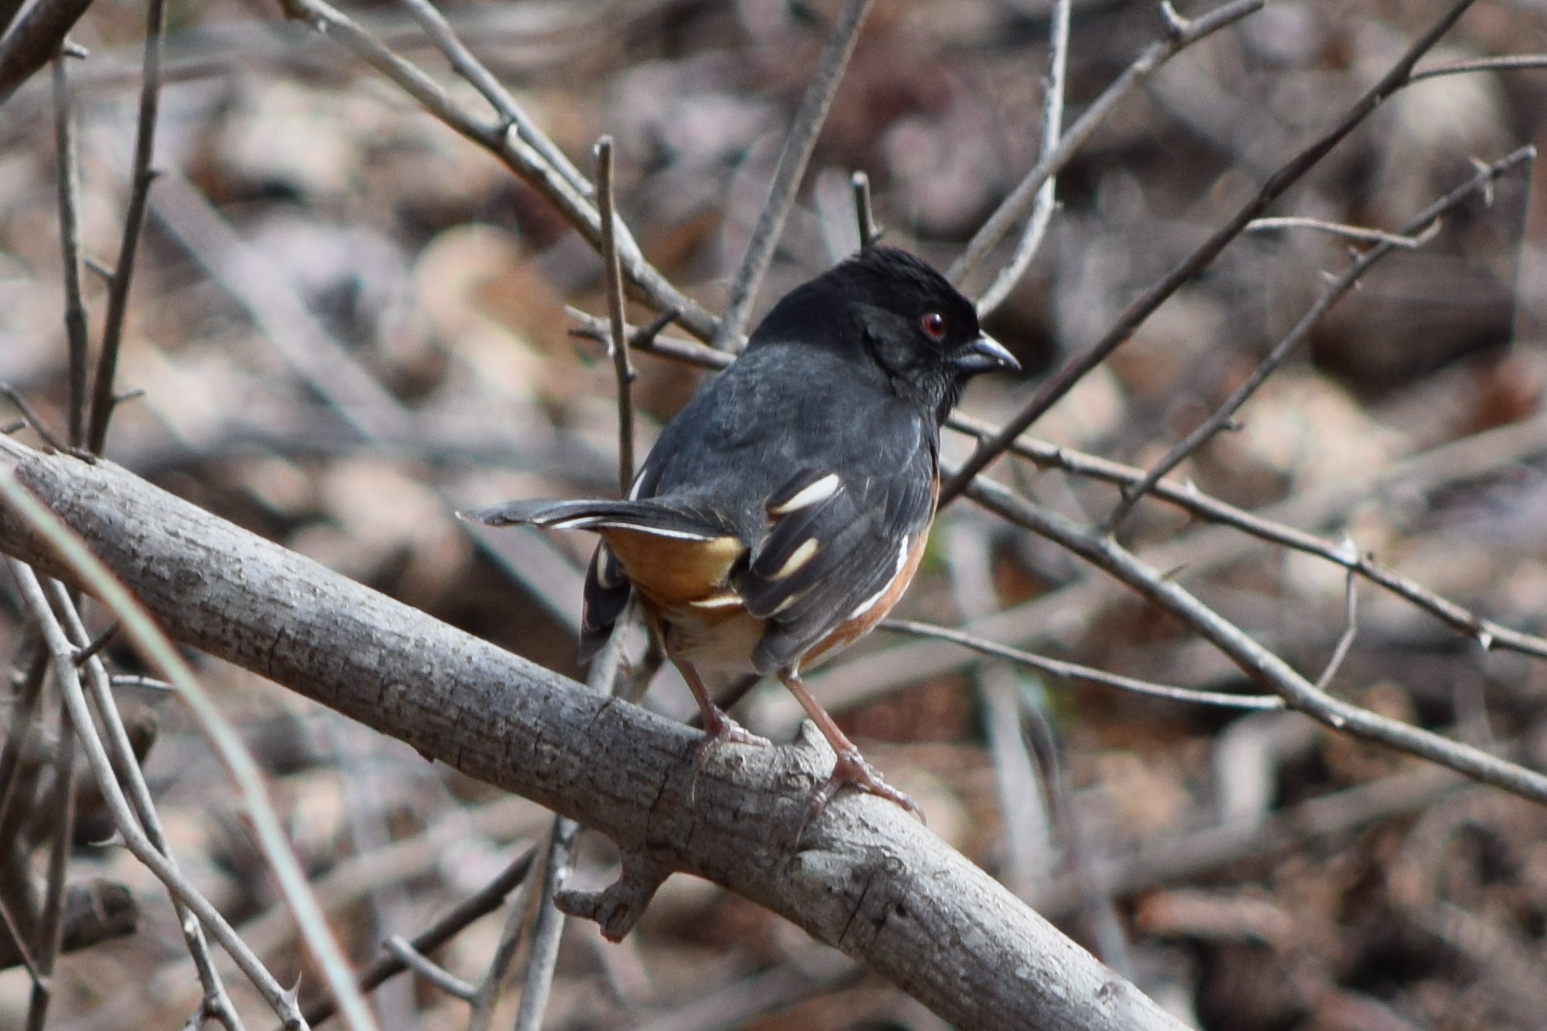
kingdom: Animalia
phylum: Chordata
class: Aves
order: Passeriformes
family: Passerellidae
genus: Pipilo
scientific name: Pipilo erythrophthalmus
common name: Eastern towhee
